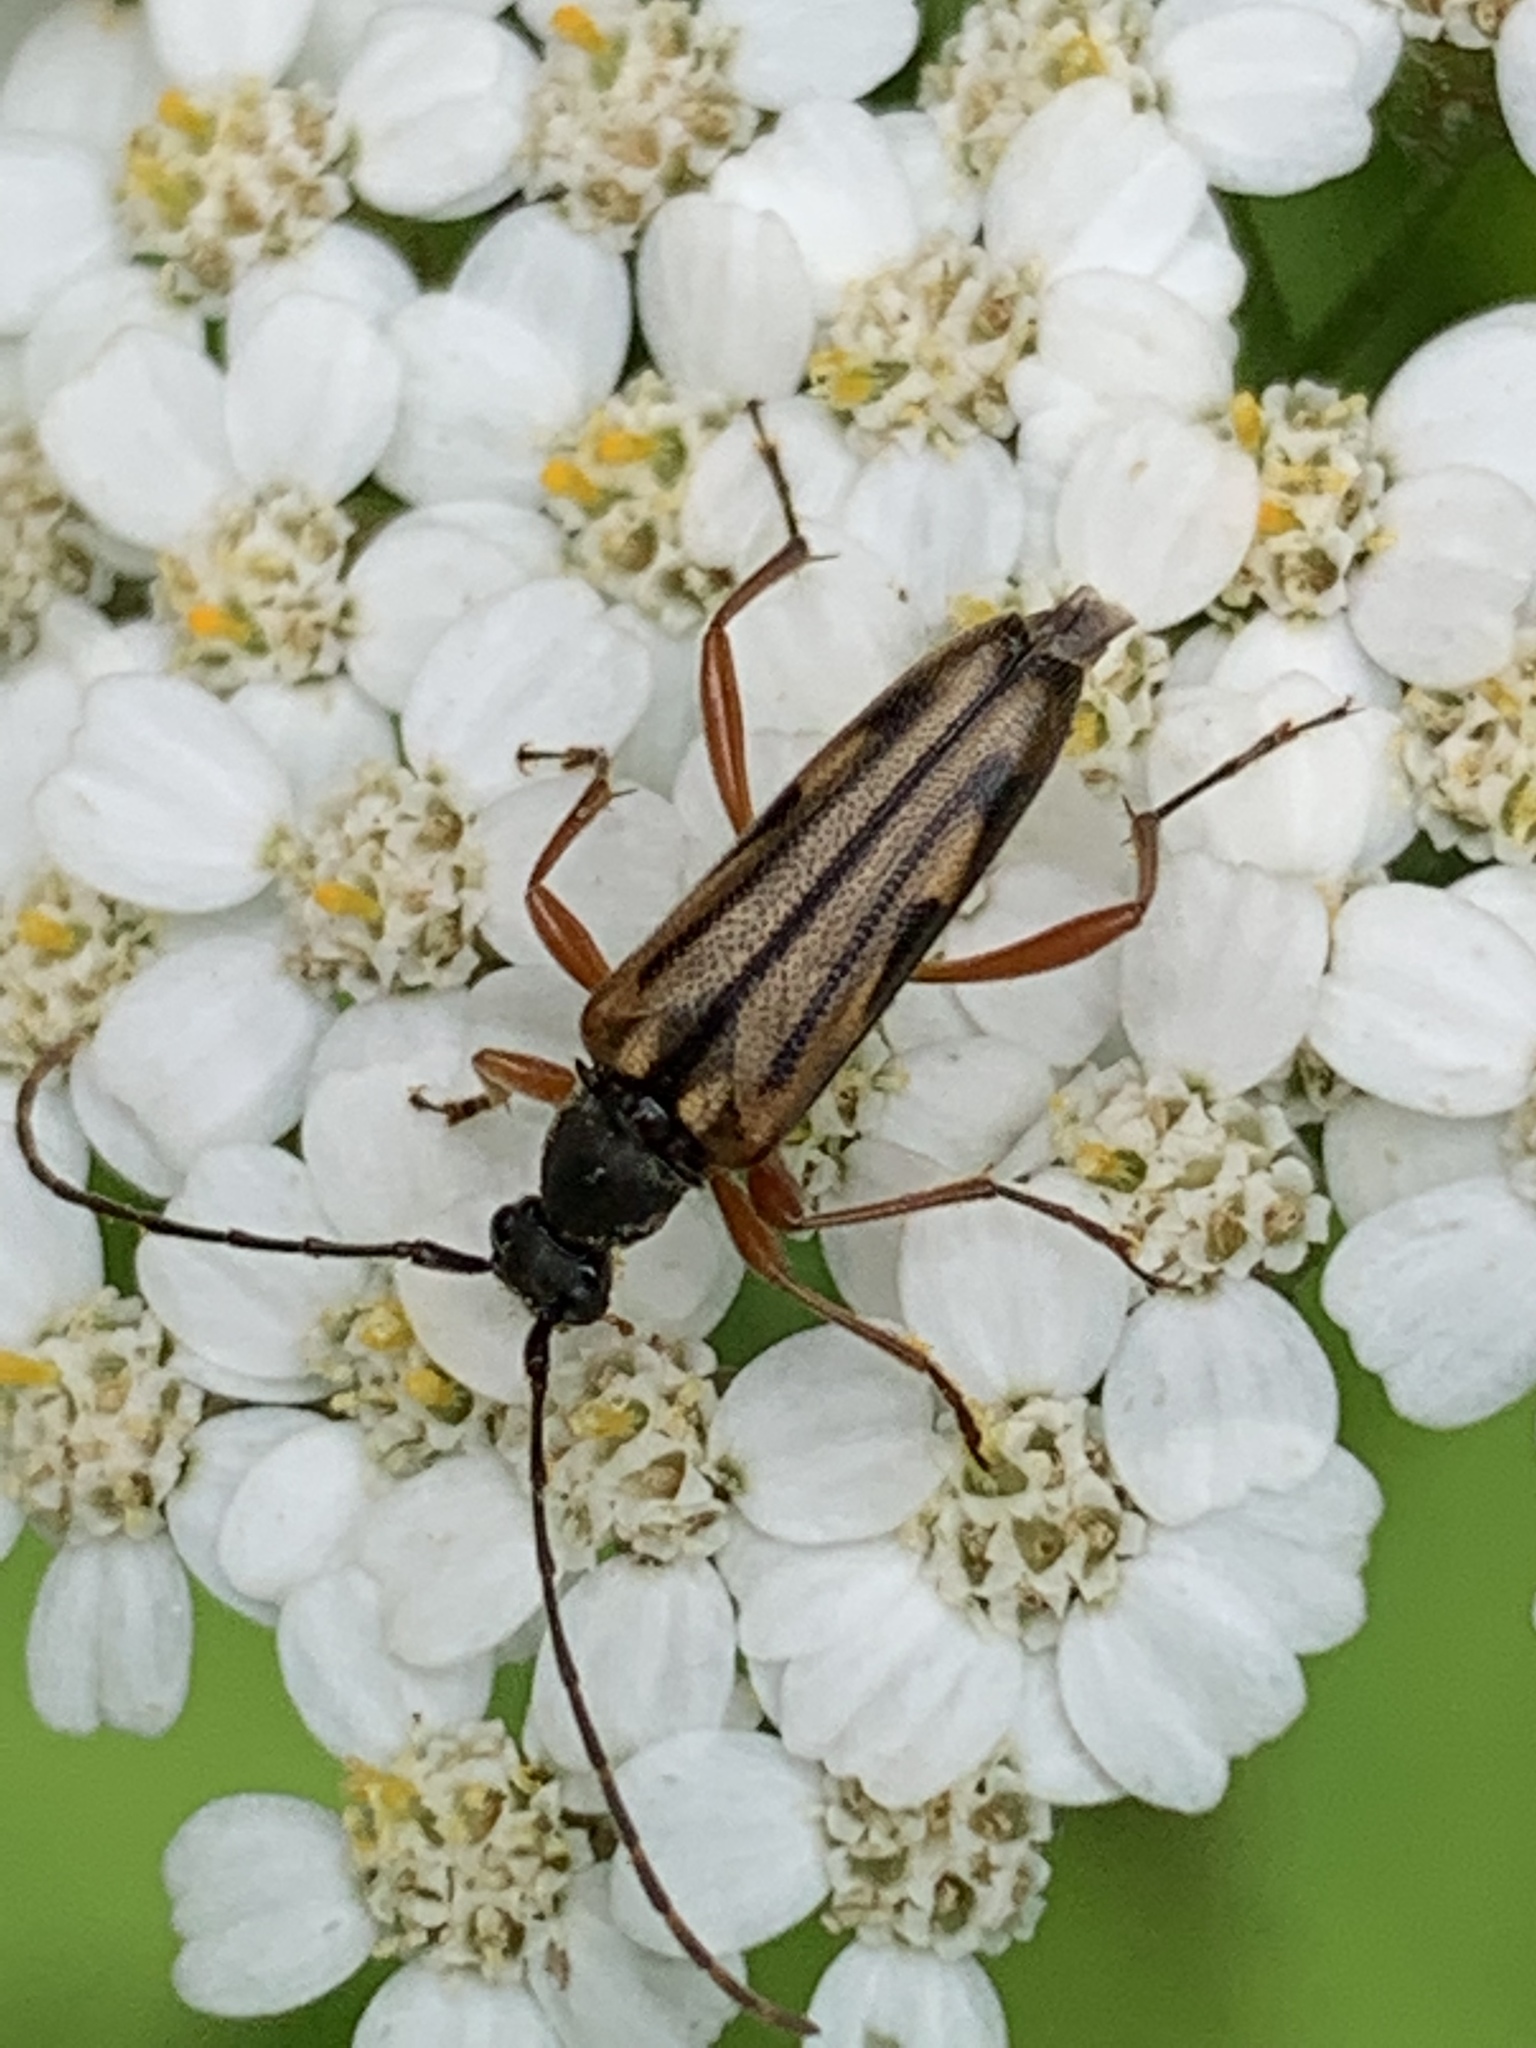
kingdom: Animalia
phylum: Arthropoda
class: Insecta
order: Coleoptera
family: Cerambycidae
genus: Analeptura
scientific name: Analeptura lineola
